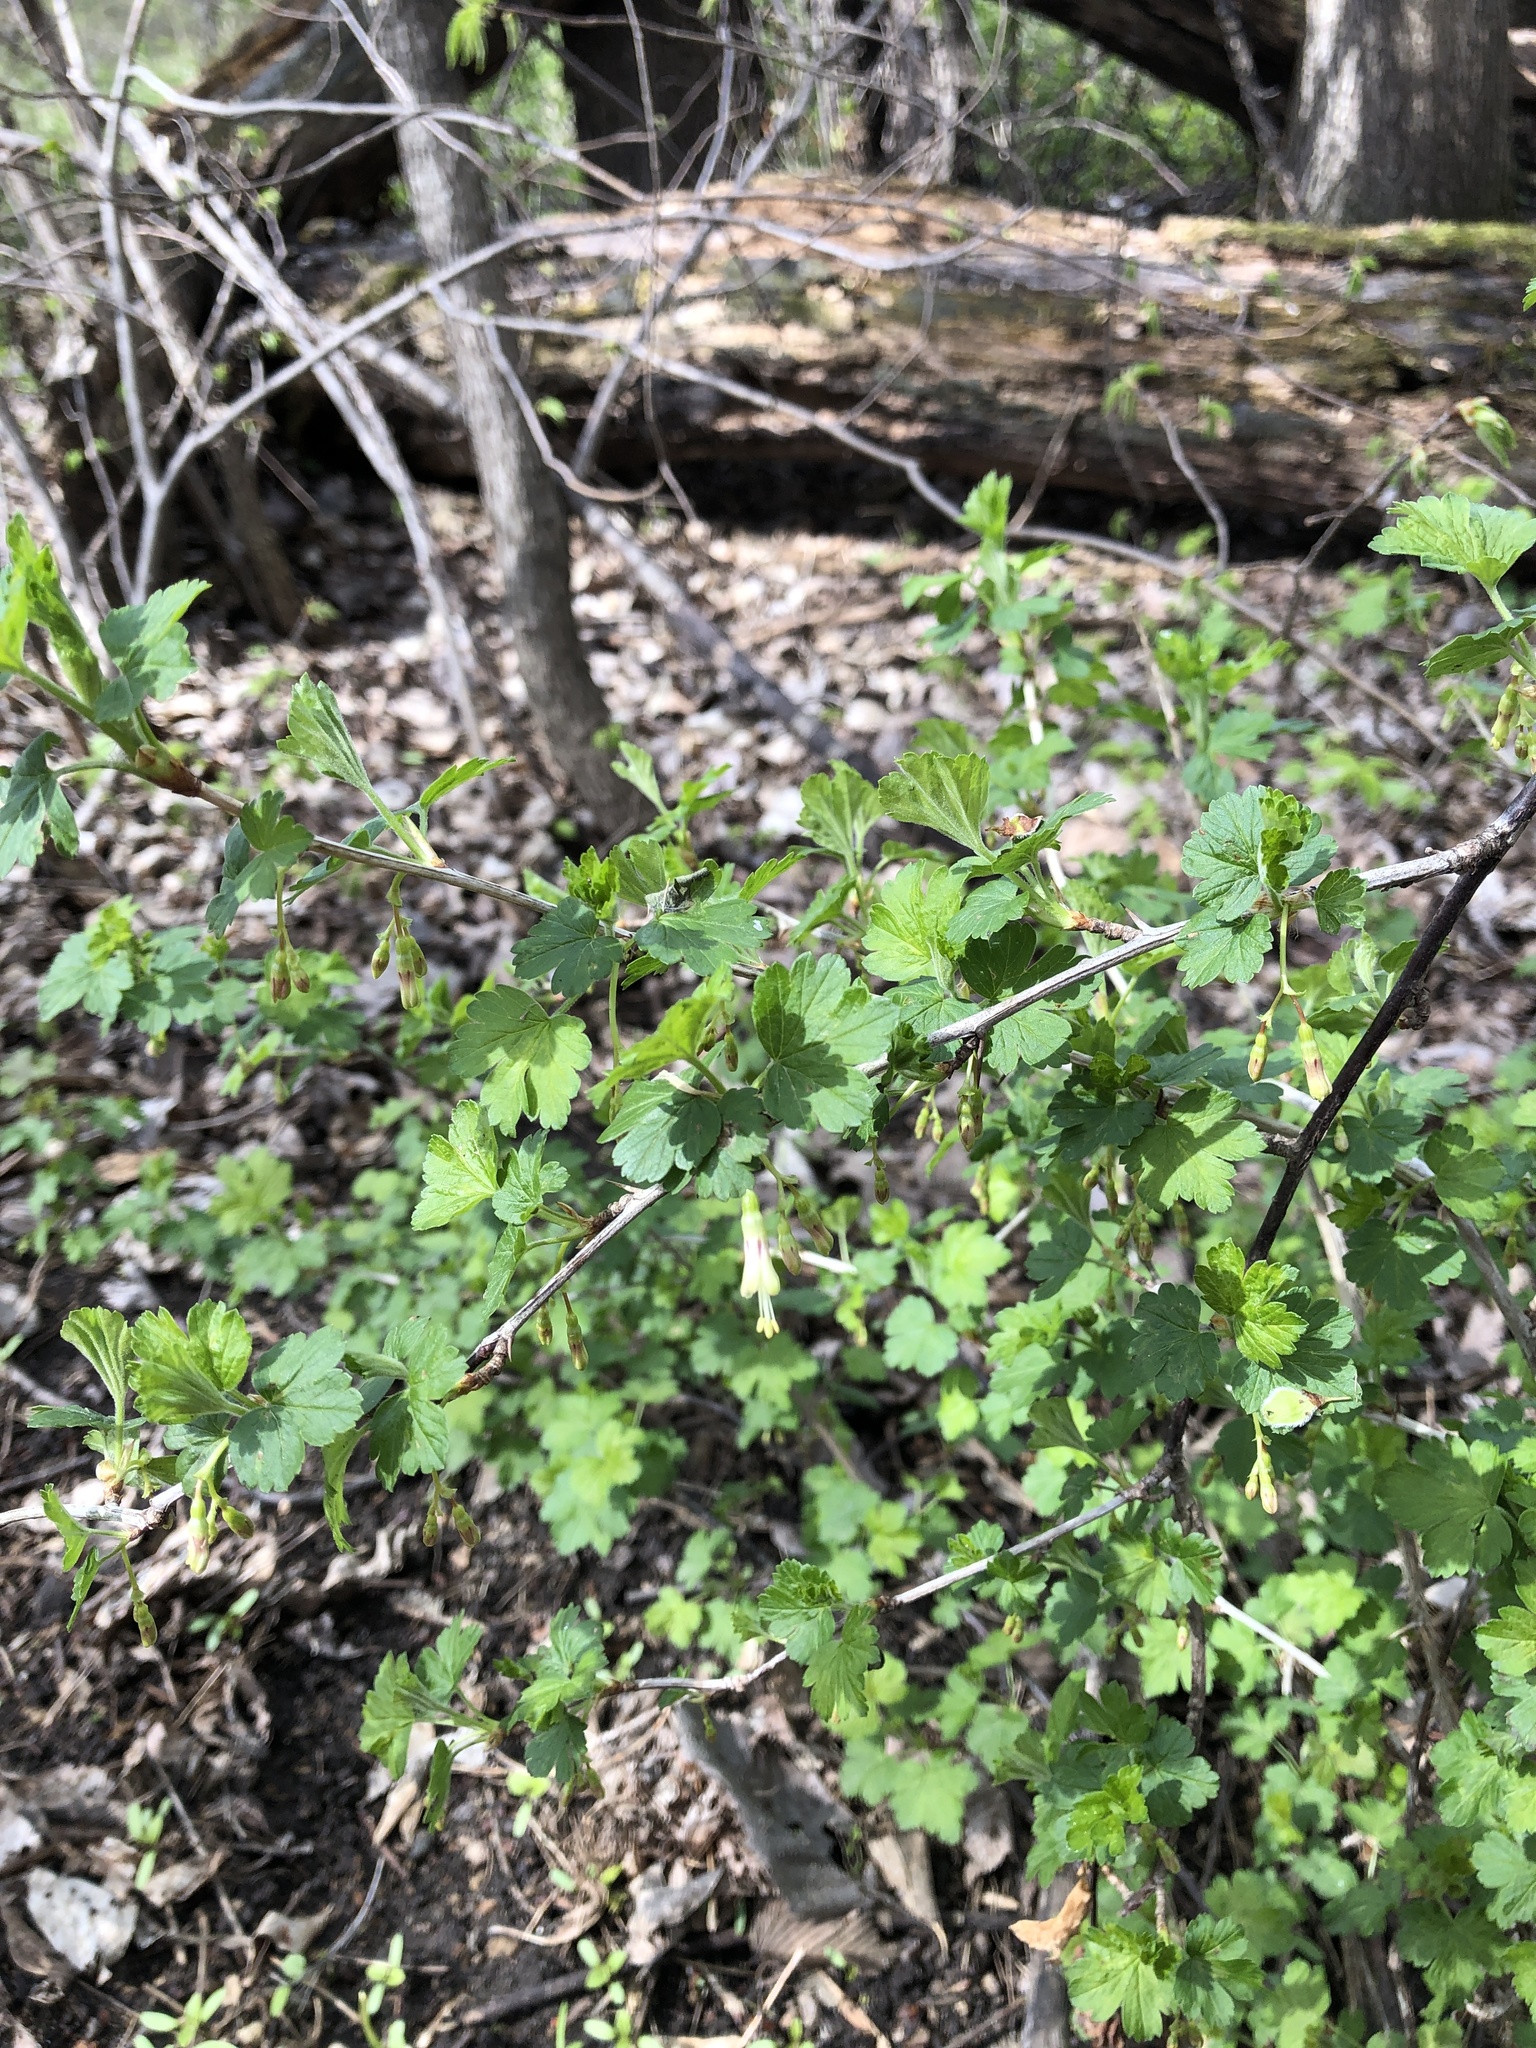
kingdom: Plantae
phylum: Tracheophyta
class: Magnoliopsida
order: Saxifragales
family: Grossulariaceae
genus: Ribes
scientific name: Ribes missouriense
